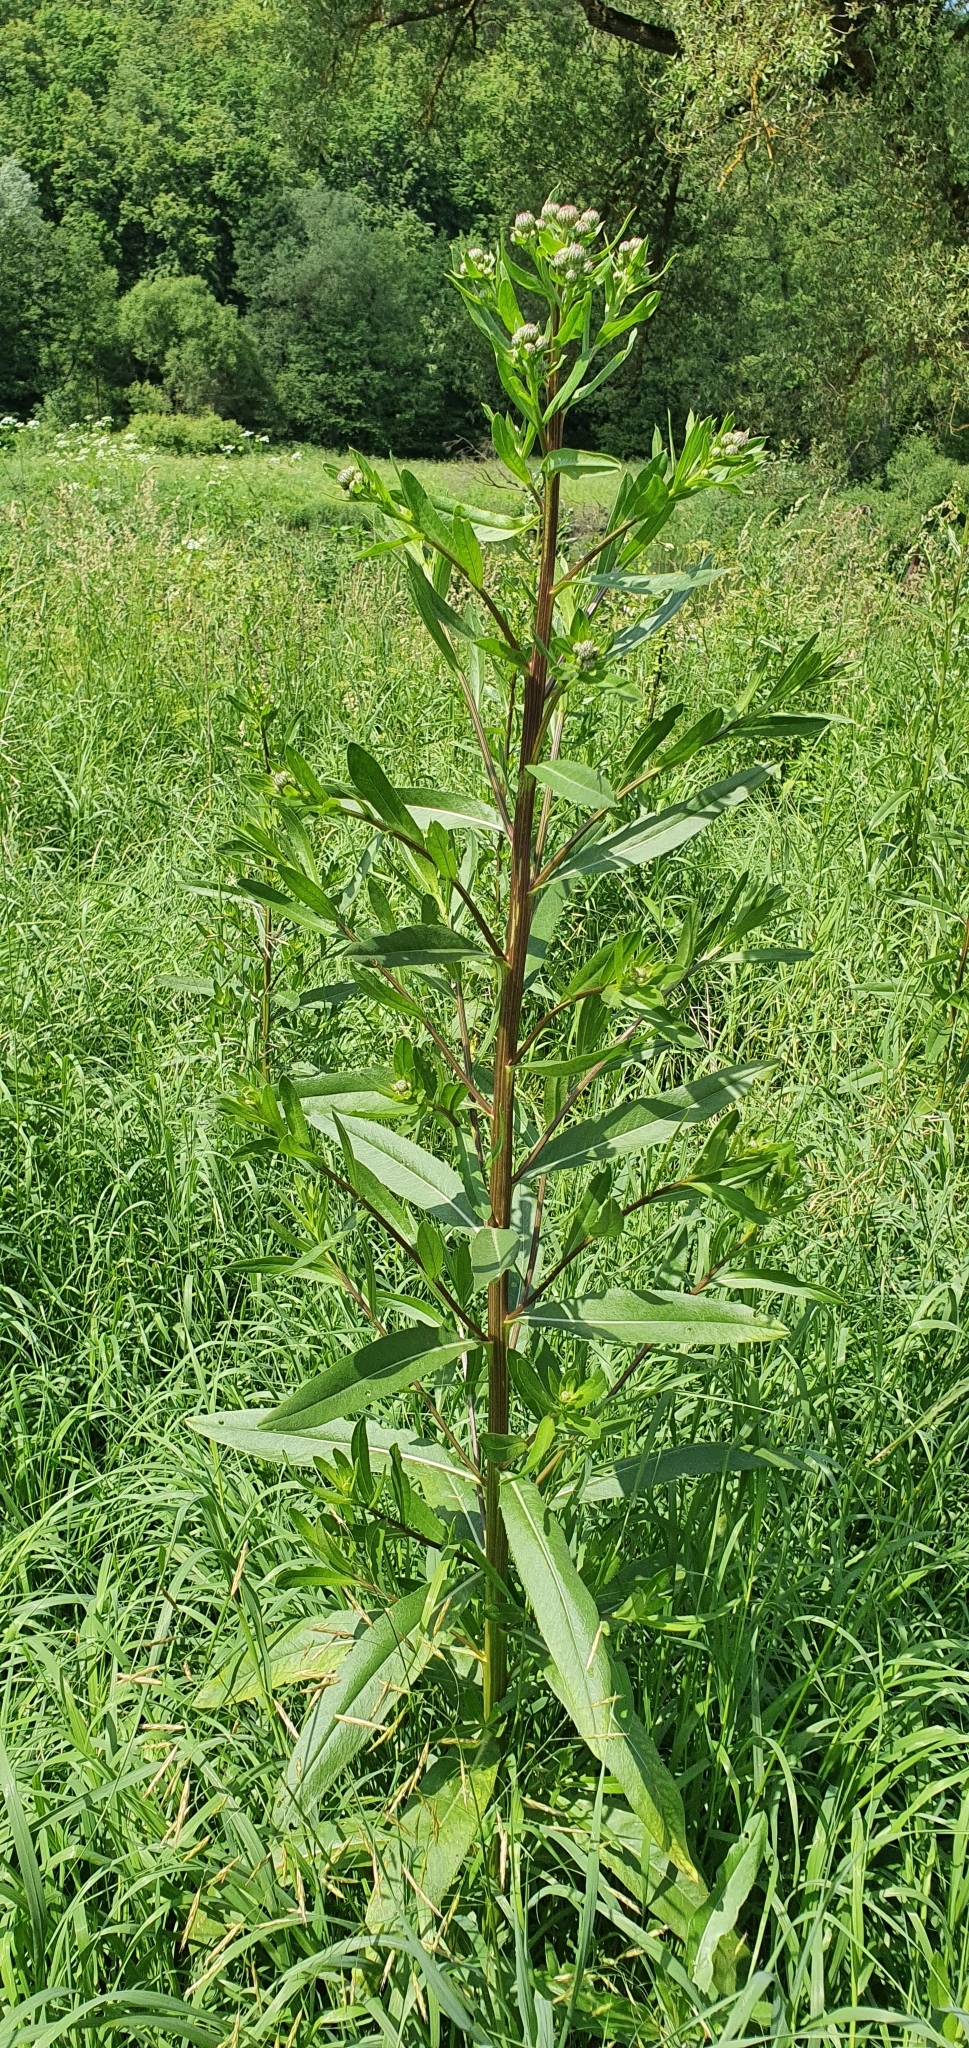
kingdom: Plantae
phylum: Tracheophyta
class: Magnoliopsida
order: Asterales
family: Asteraceae
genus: Cirsium
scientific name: Cirsium arvense
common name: Creeping thistle
